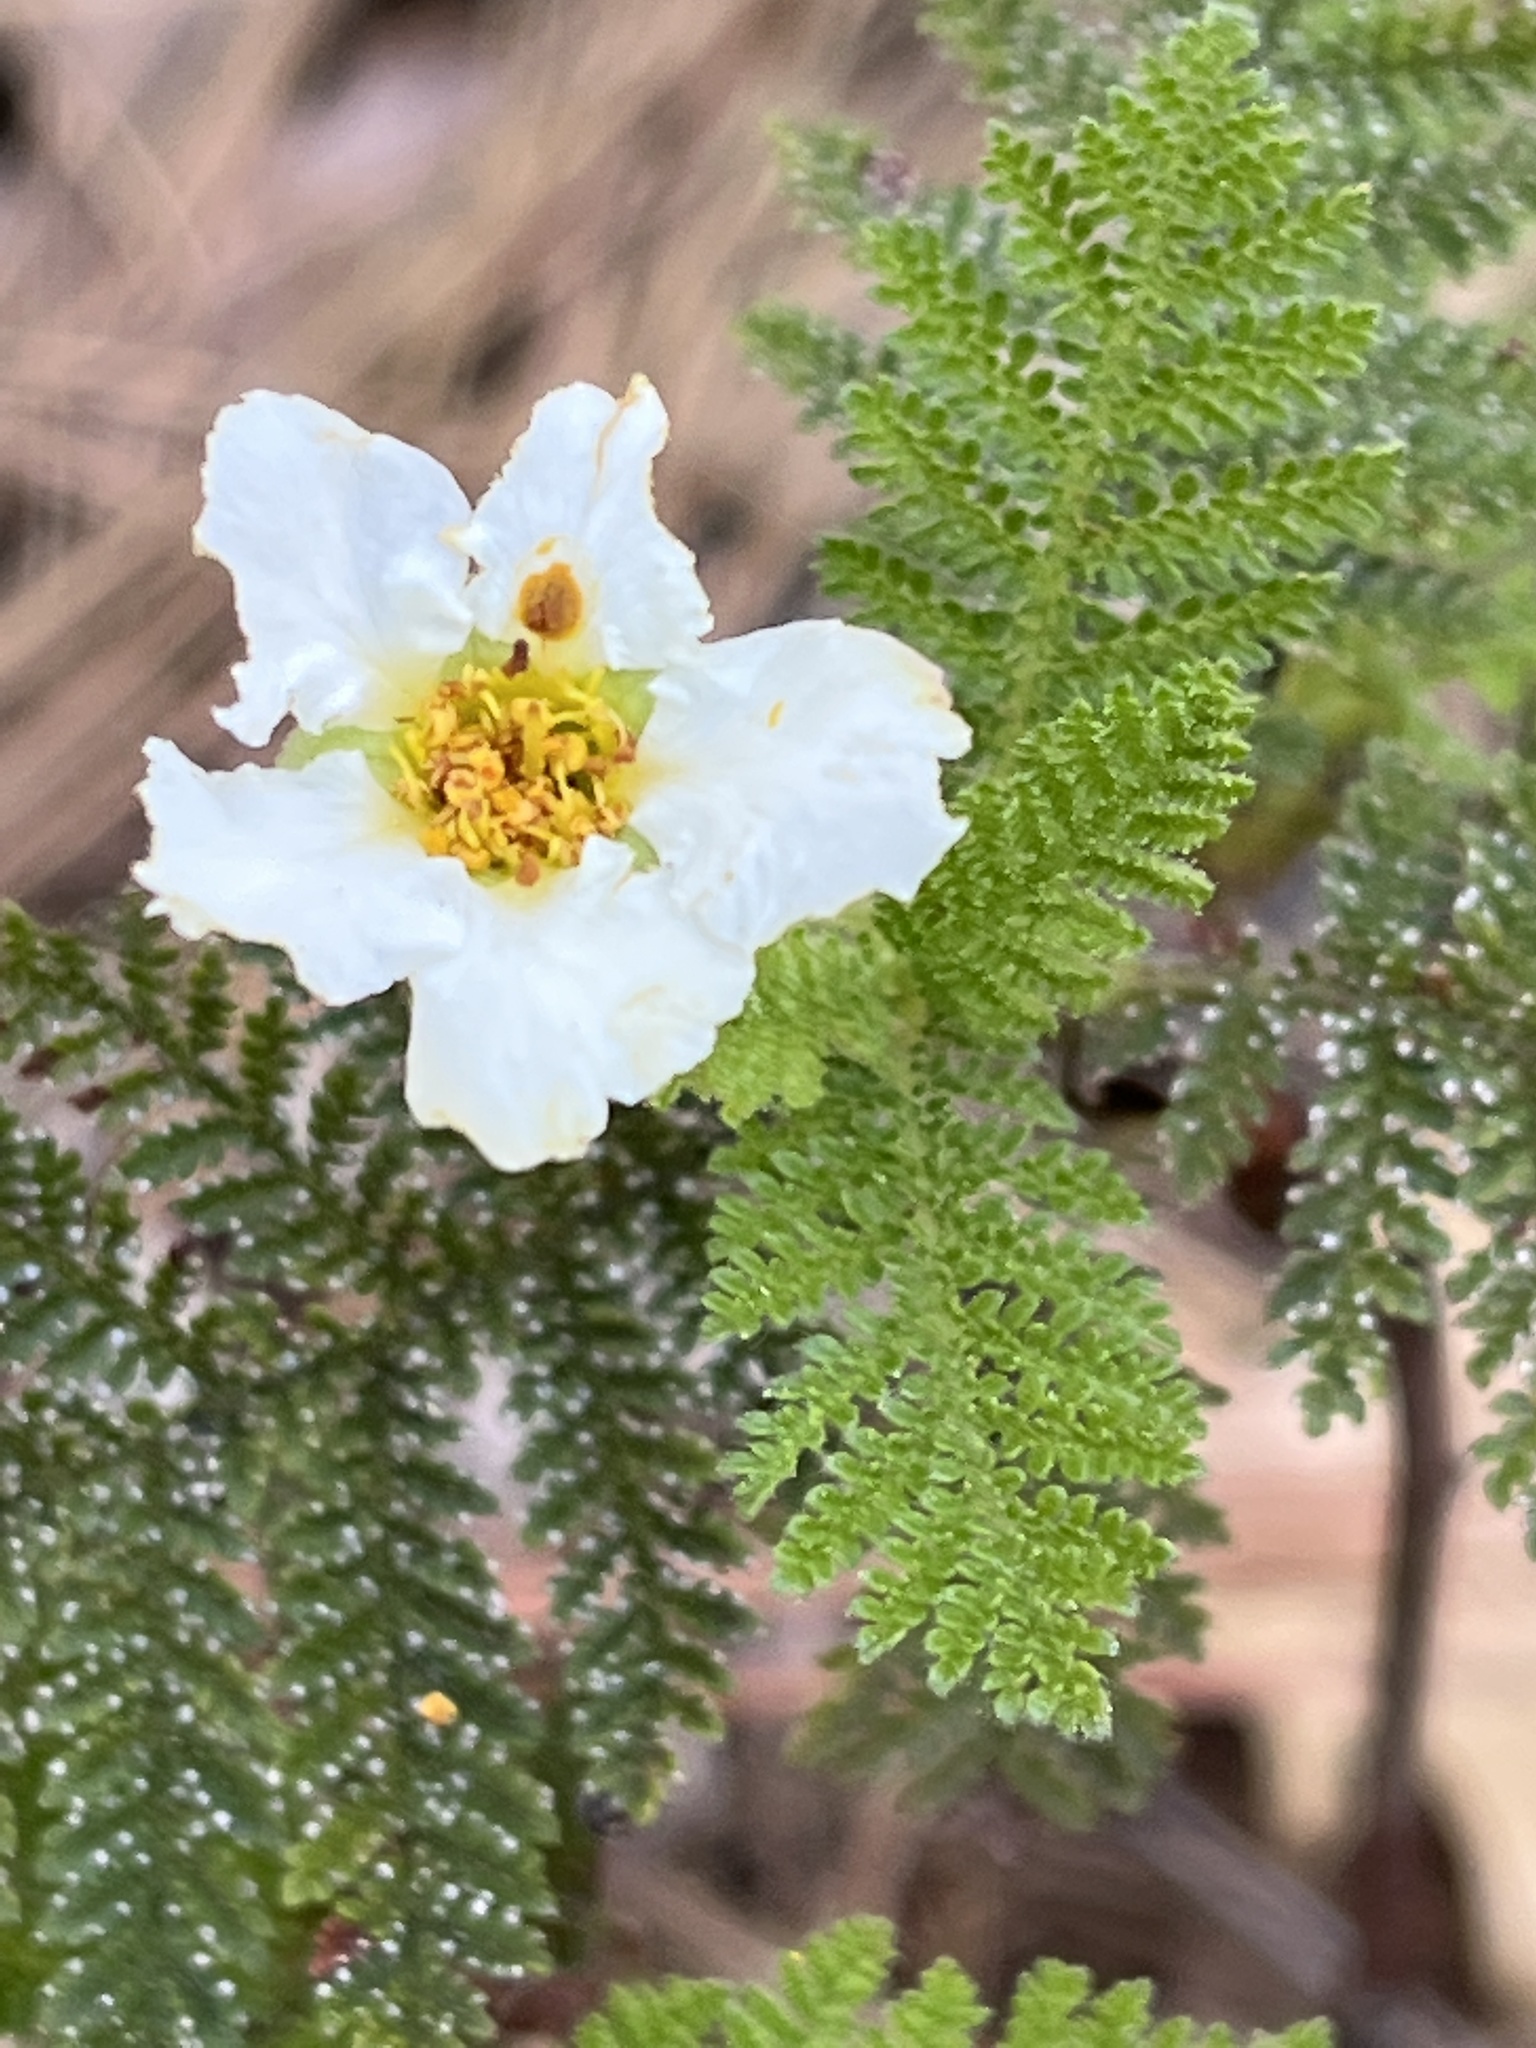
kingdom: Plantae
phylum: Tracheophyta
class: Magnoliopsida
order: Rosales
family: Rosaceae
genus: Chamaebatia
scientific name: Chamaebatia foliolosa
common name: Mountain misery
